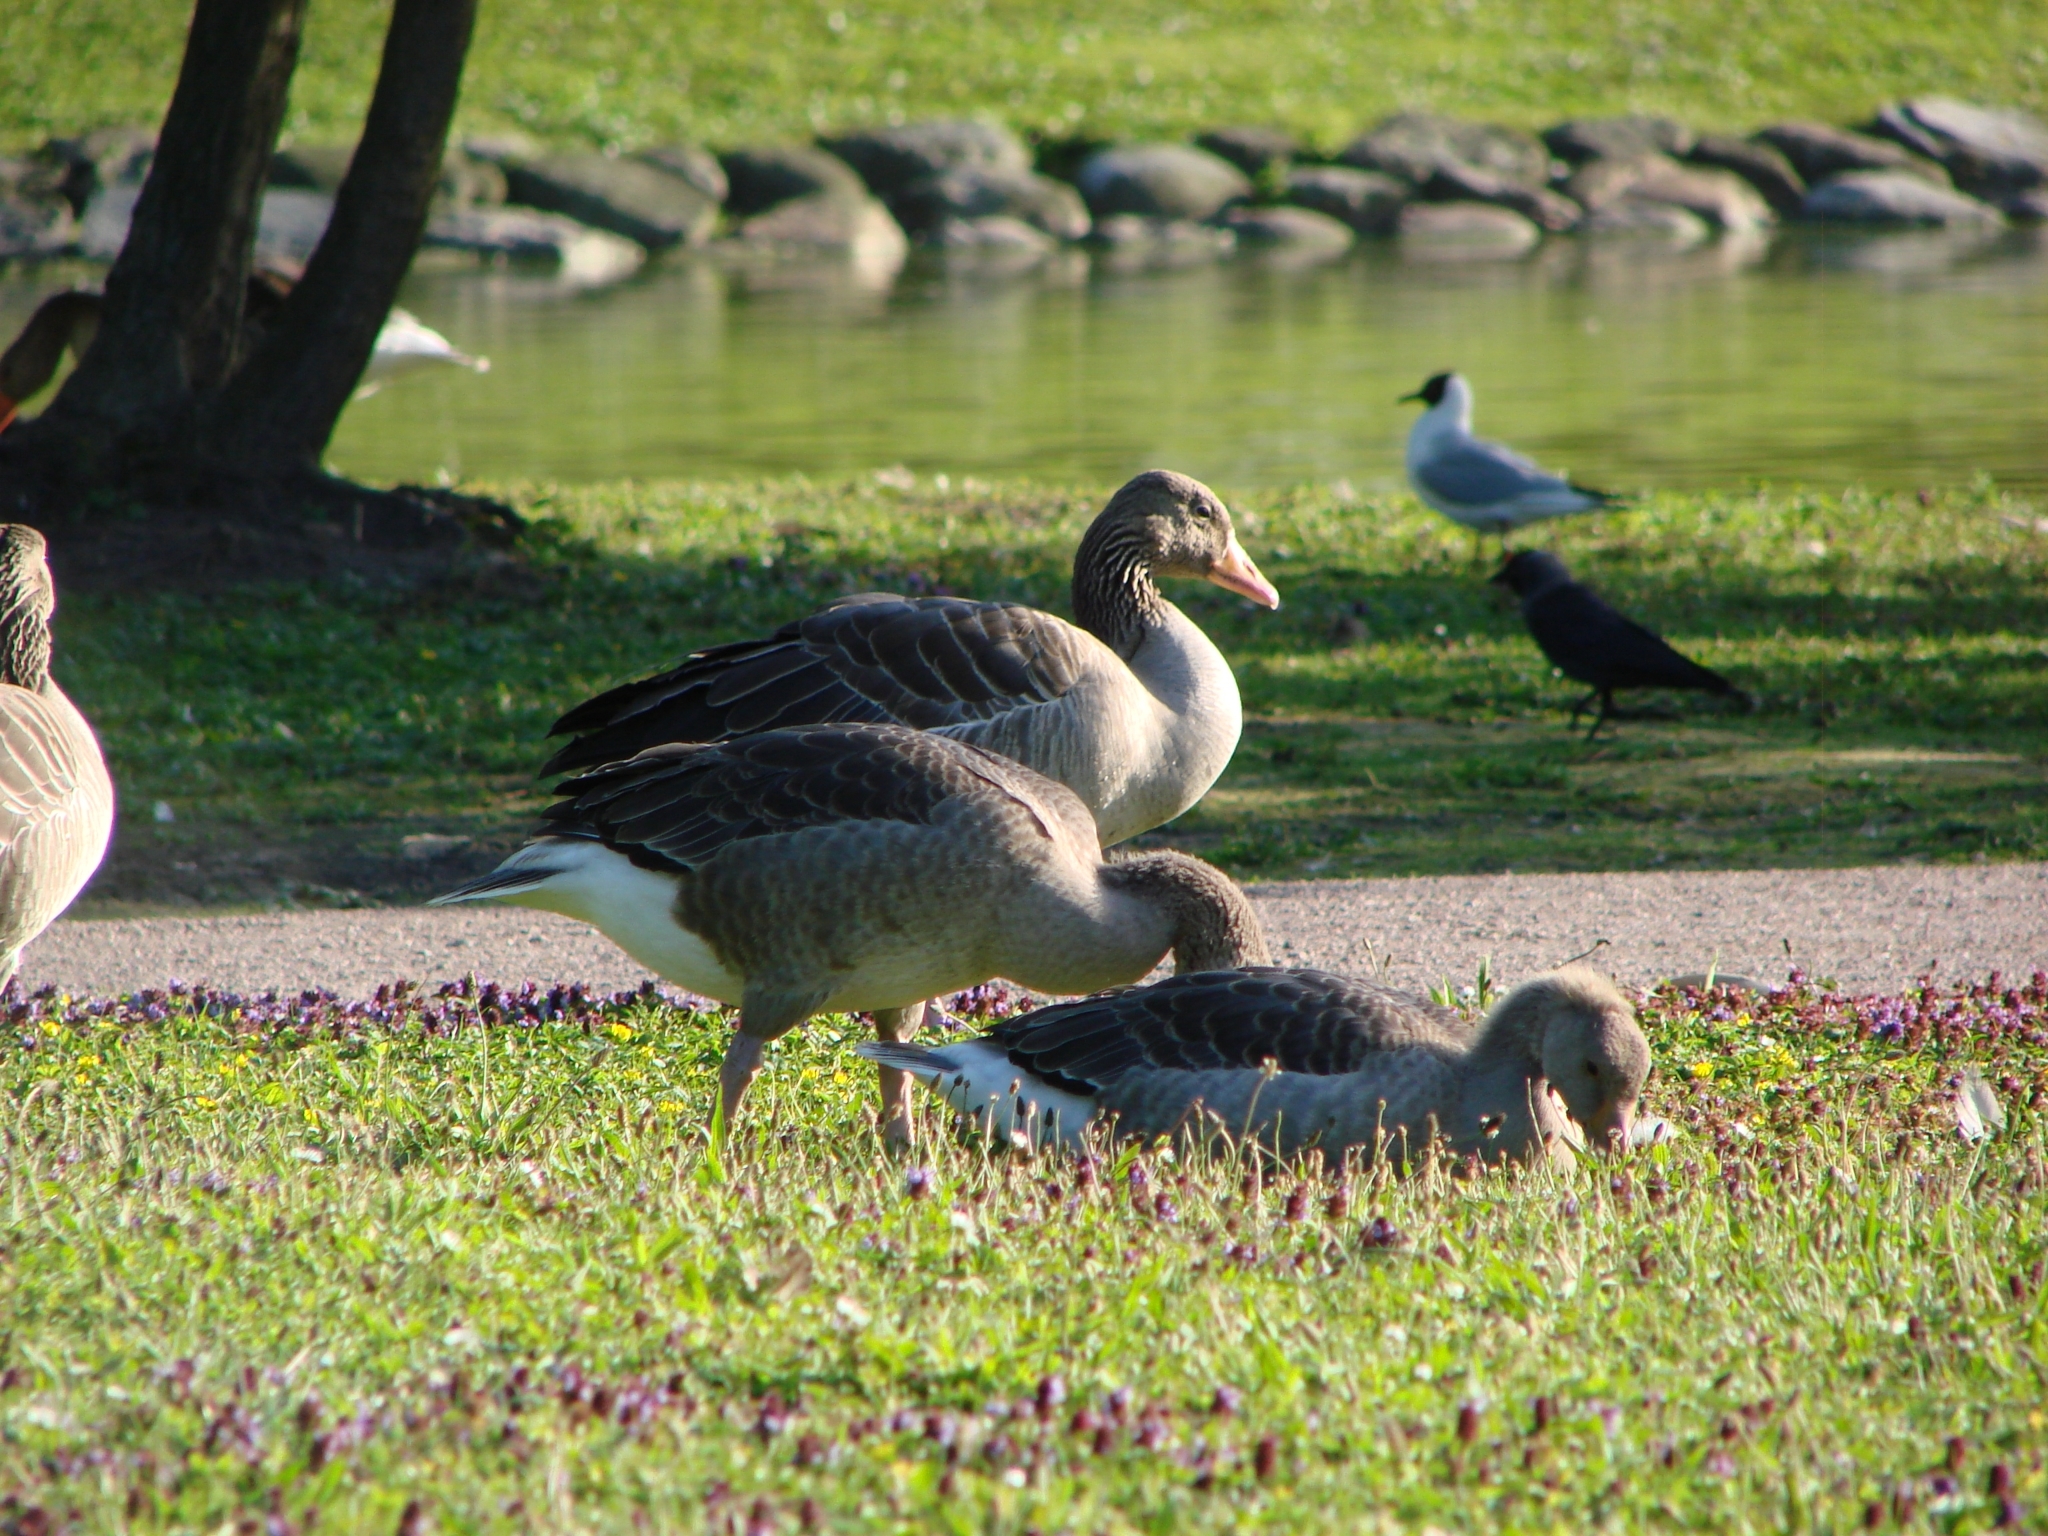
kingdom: Animalia
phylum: Chordata
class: Aves
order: Anseriformes
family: Anatidae
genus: Anser
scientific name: Anser anser
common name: Greylag goose
